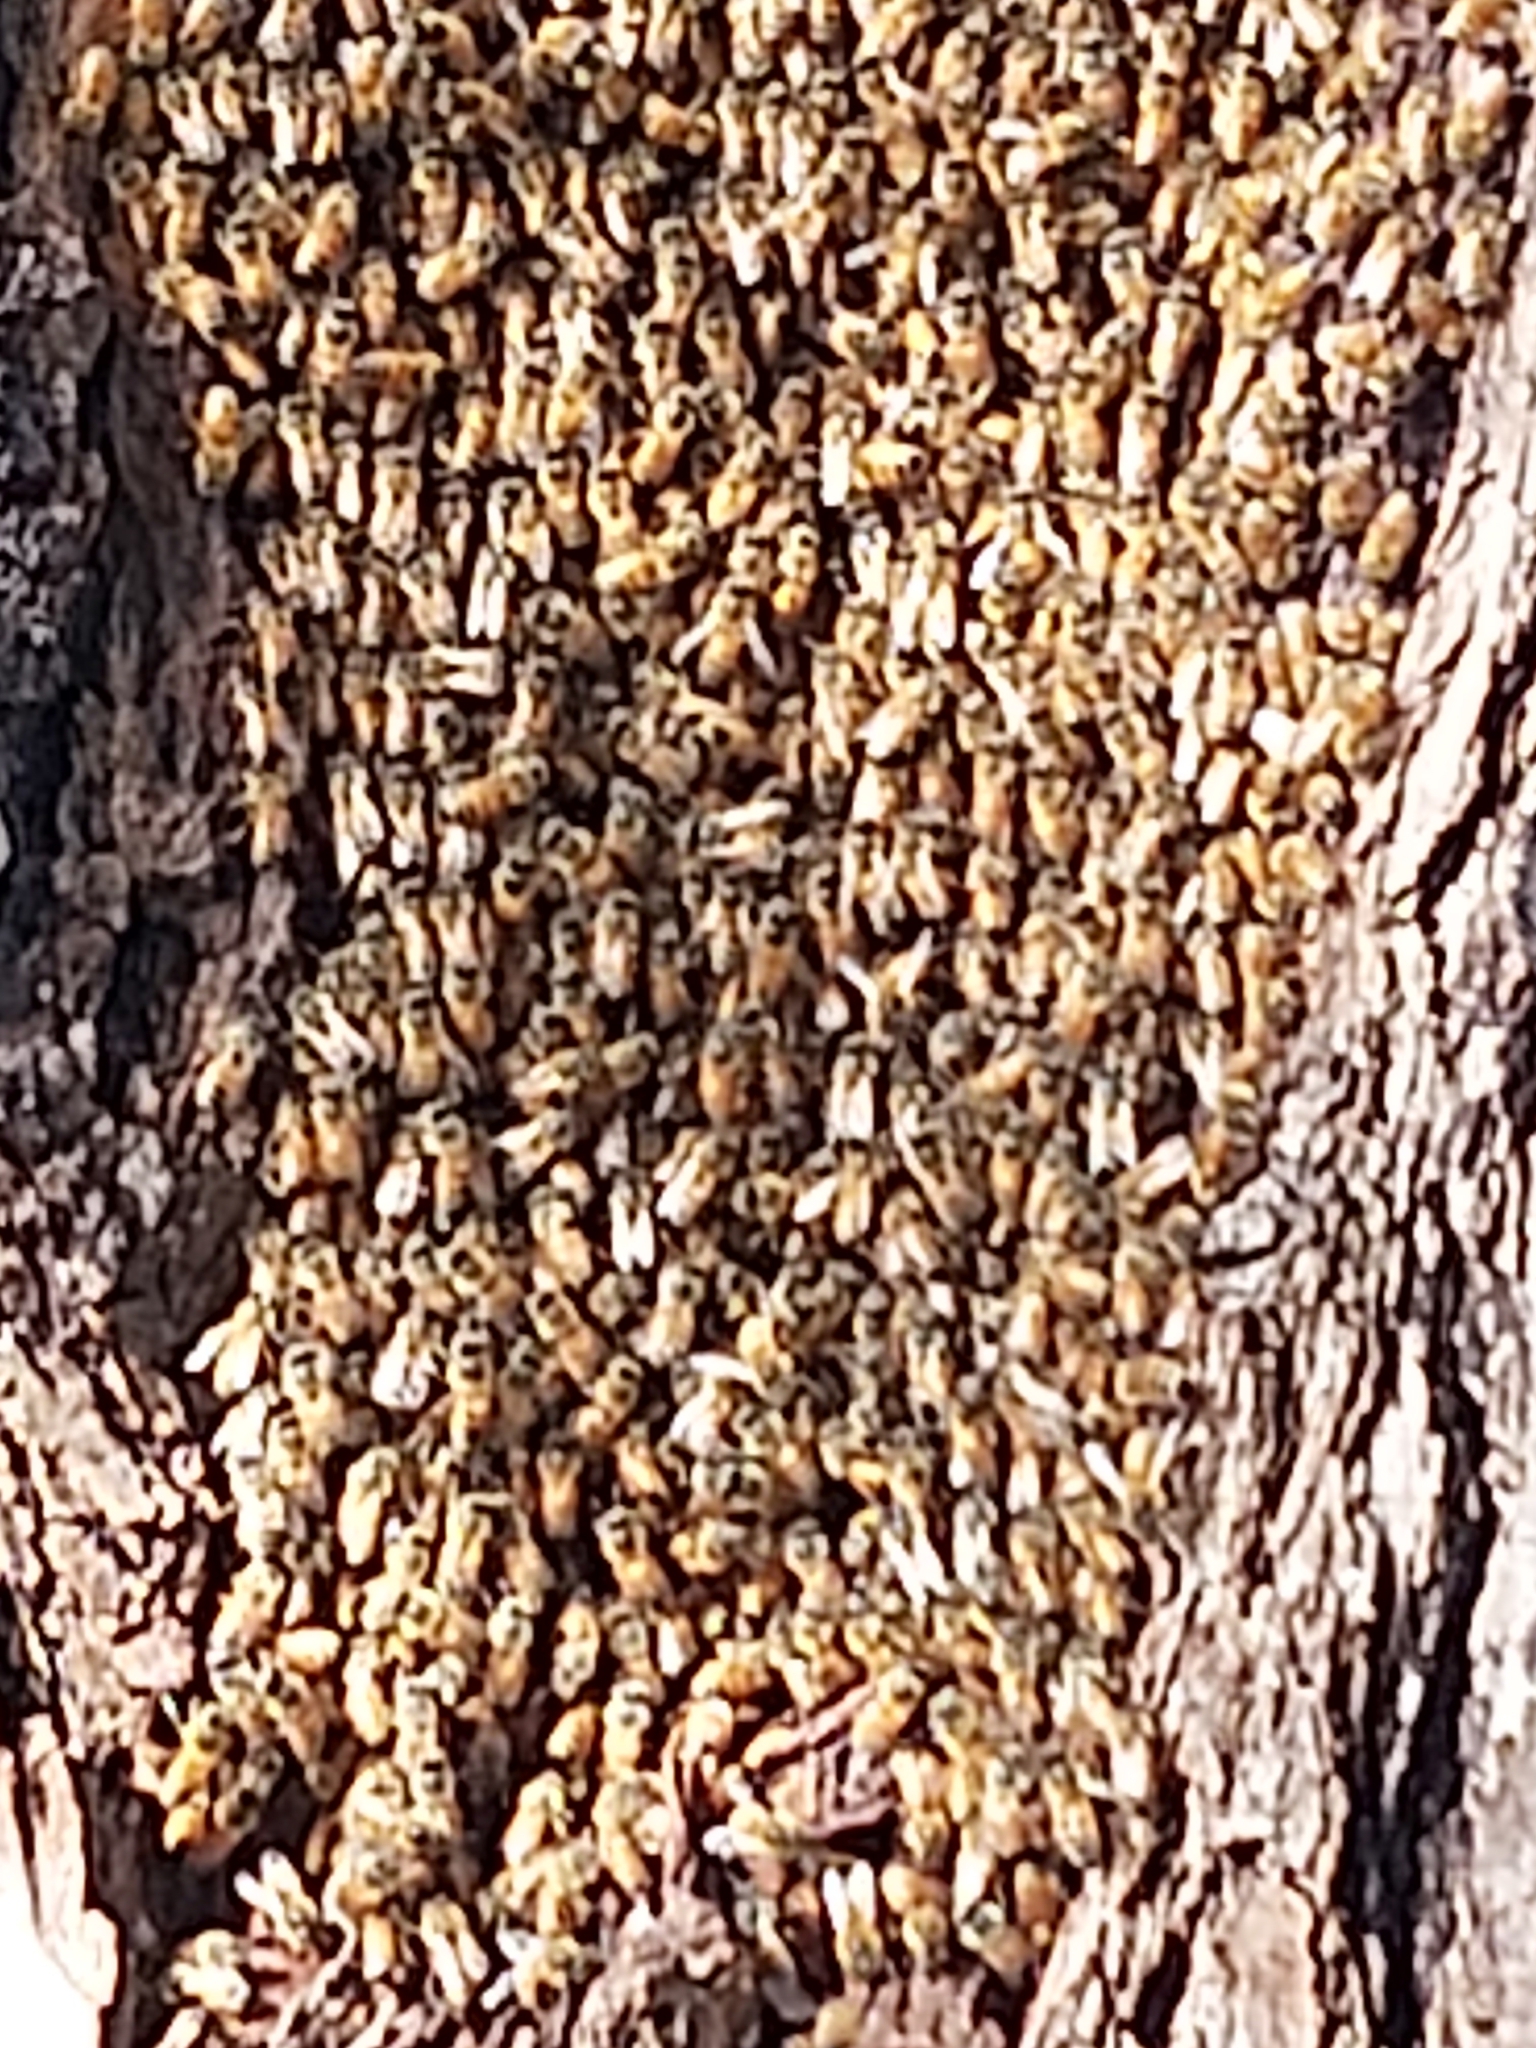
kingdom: Animalia
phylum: Arthropoda
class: Insecta
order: Hymenoptera
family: Apidae
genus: Apis
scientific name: Apis mellifera
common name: Honey bee
